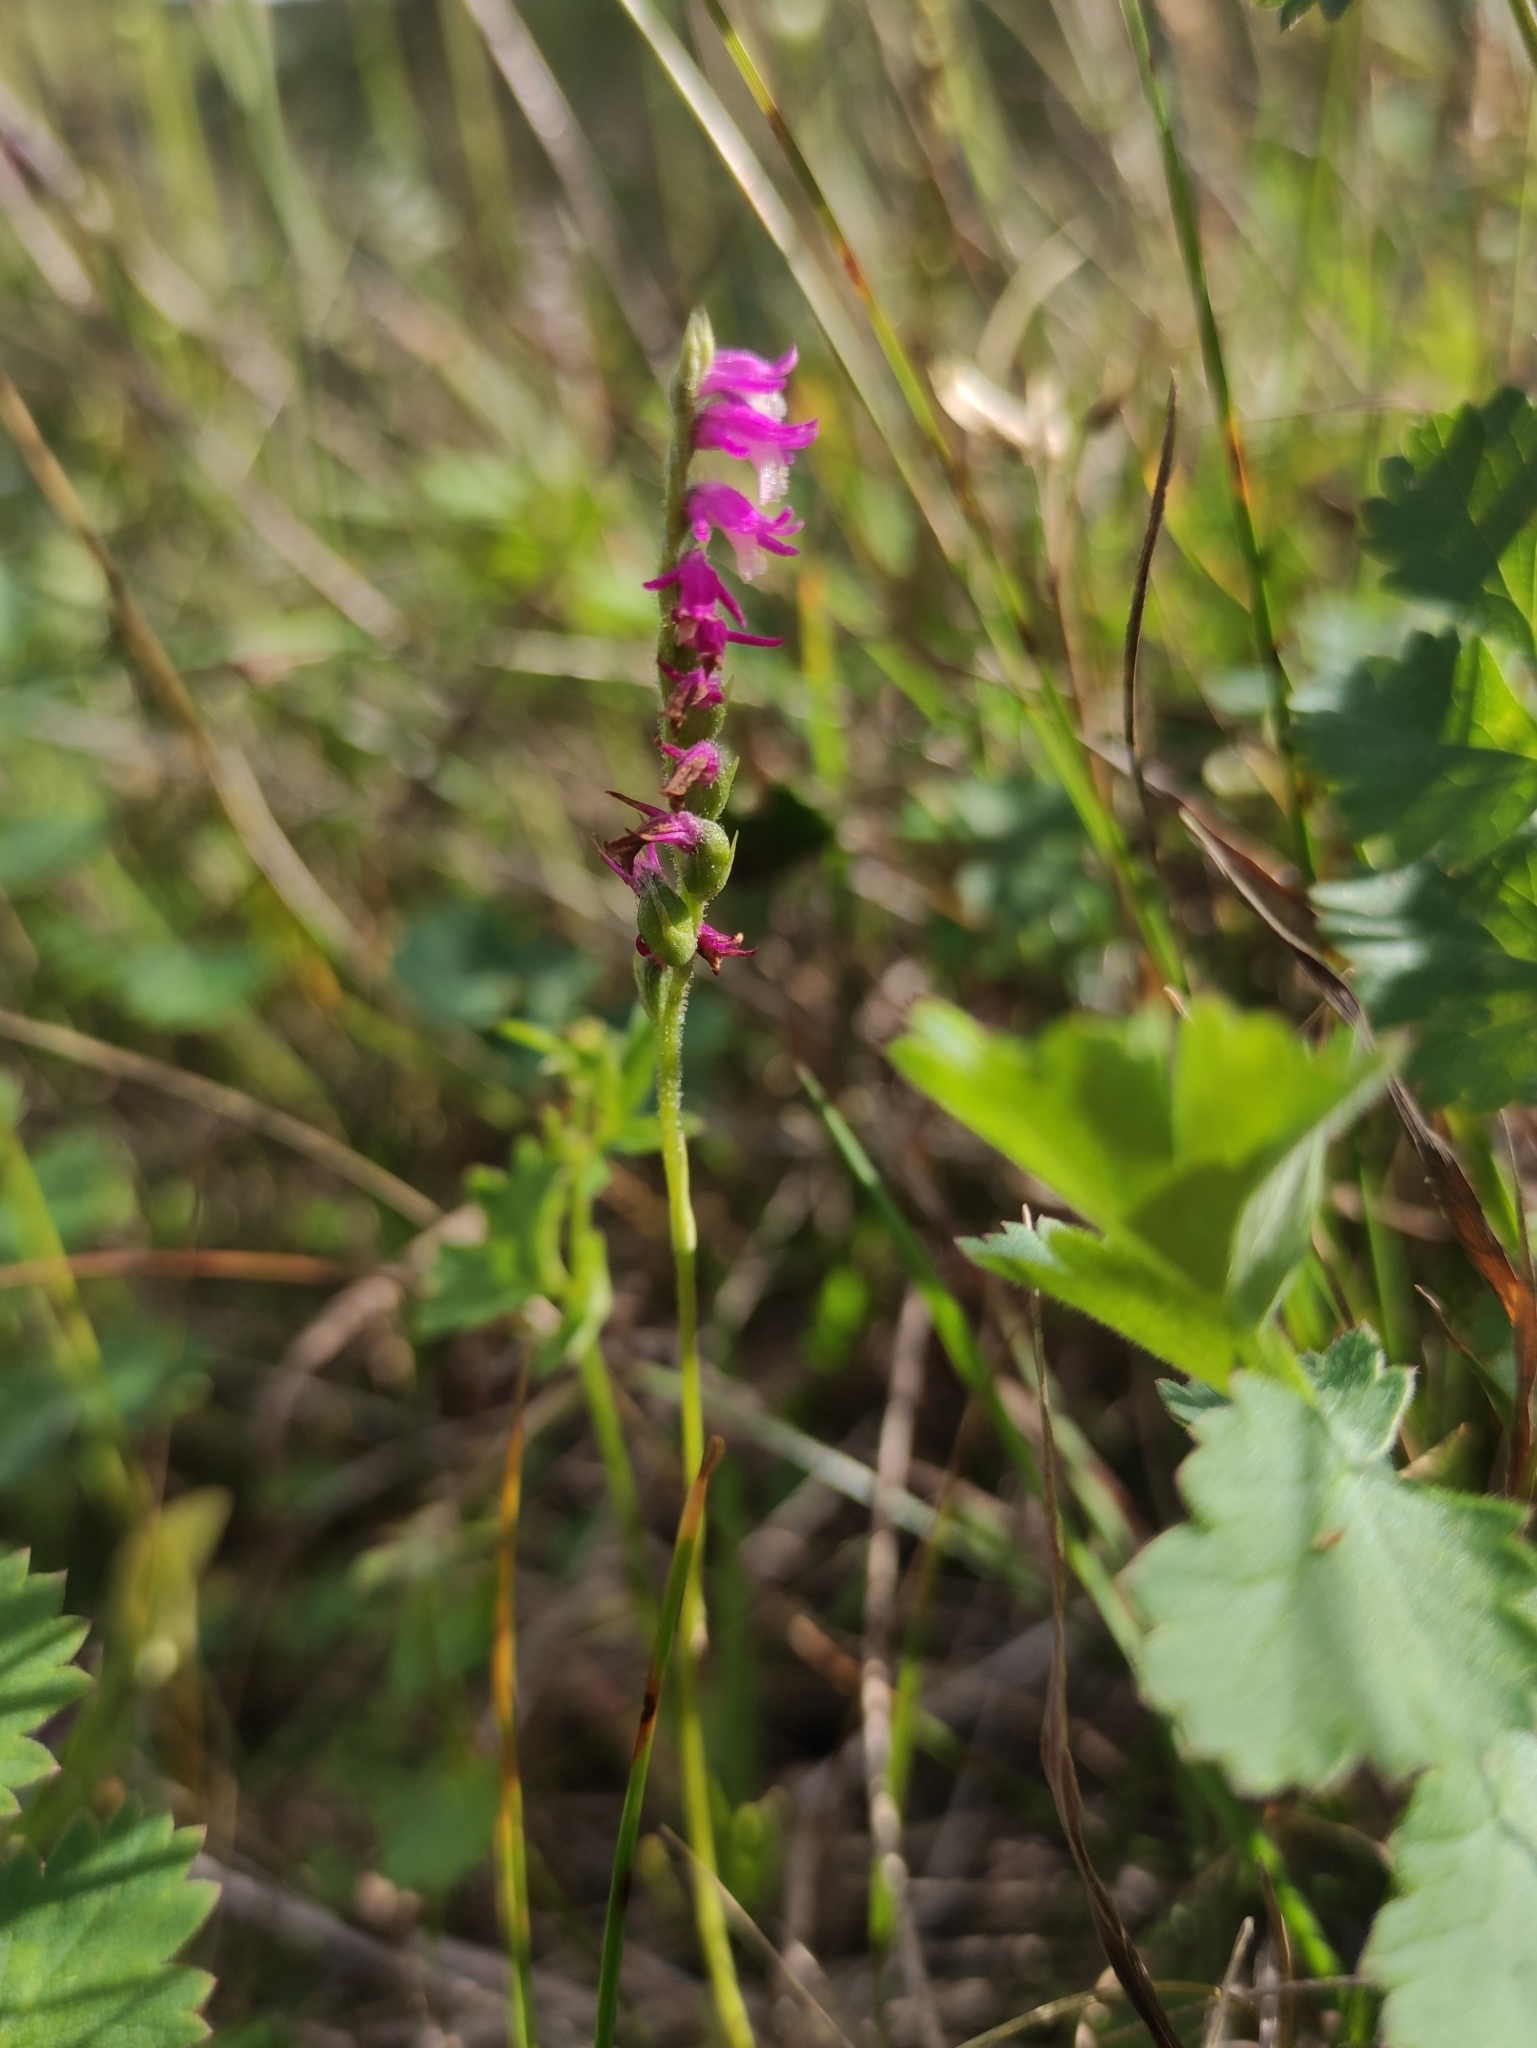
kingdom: Plantae
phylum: Tracheophyta
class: Liliopsida
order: Asparagales
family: Orchidaceae
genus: Spiranthes
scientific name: Spiranthes australis
